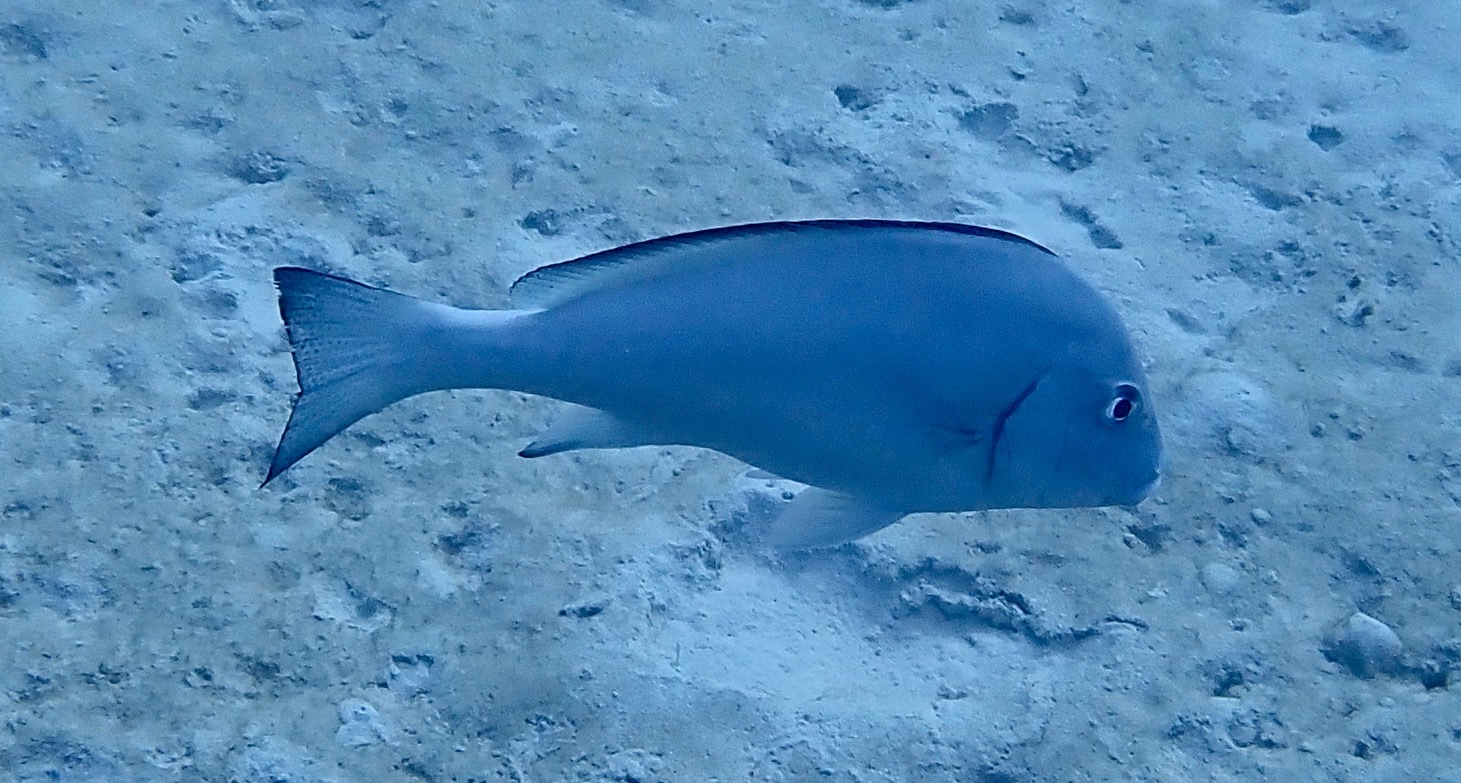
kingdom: Animalia
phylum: Chordata
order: Perciformes
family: Haemulidae
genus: Diagramma
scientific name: Diagramma pictum
